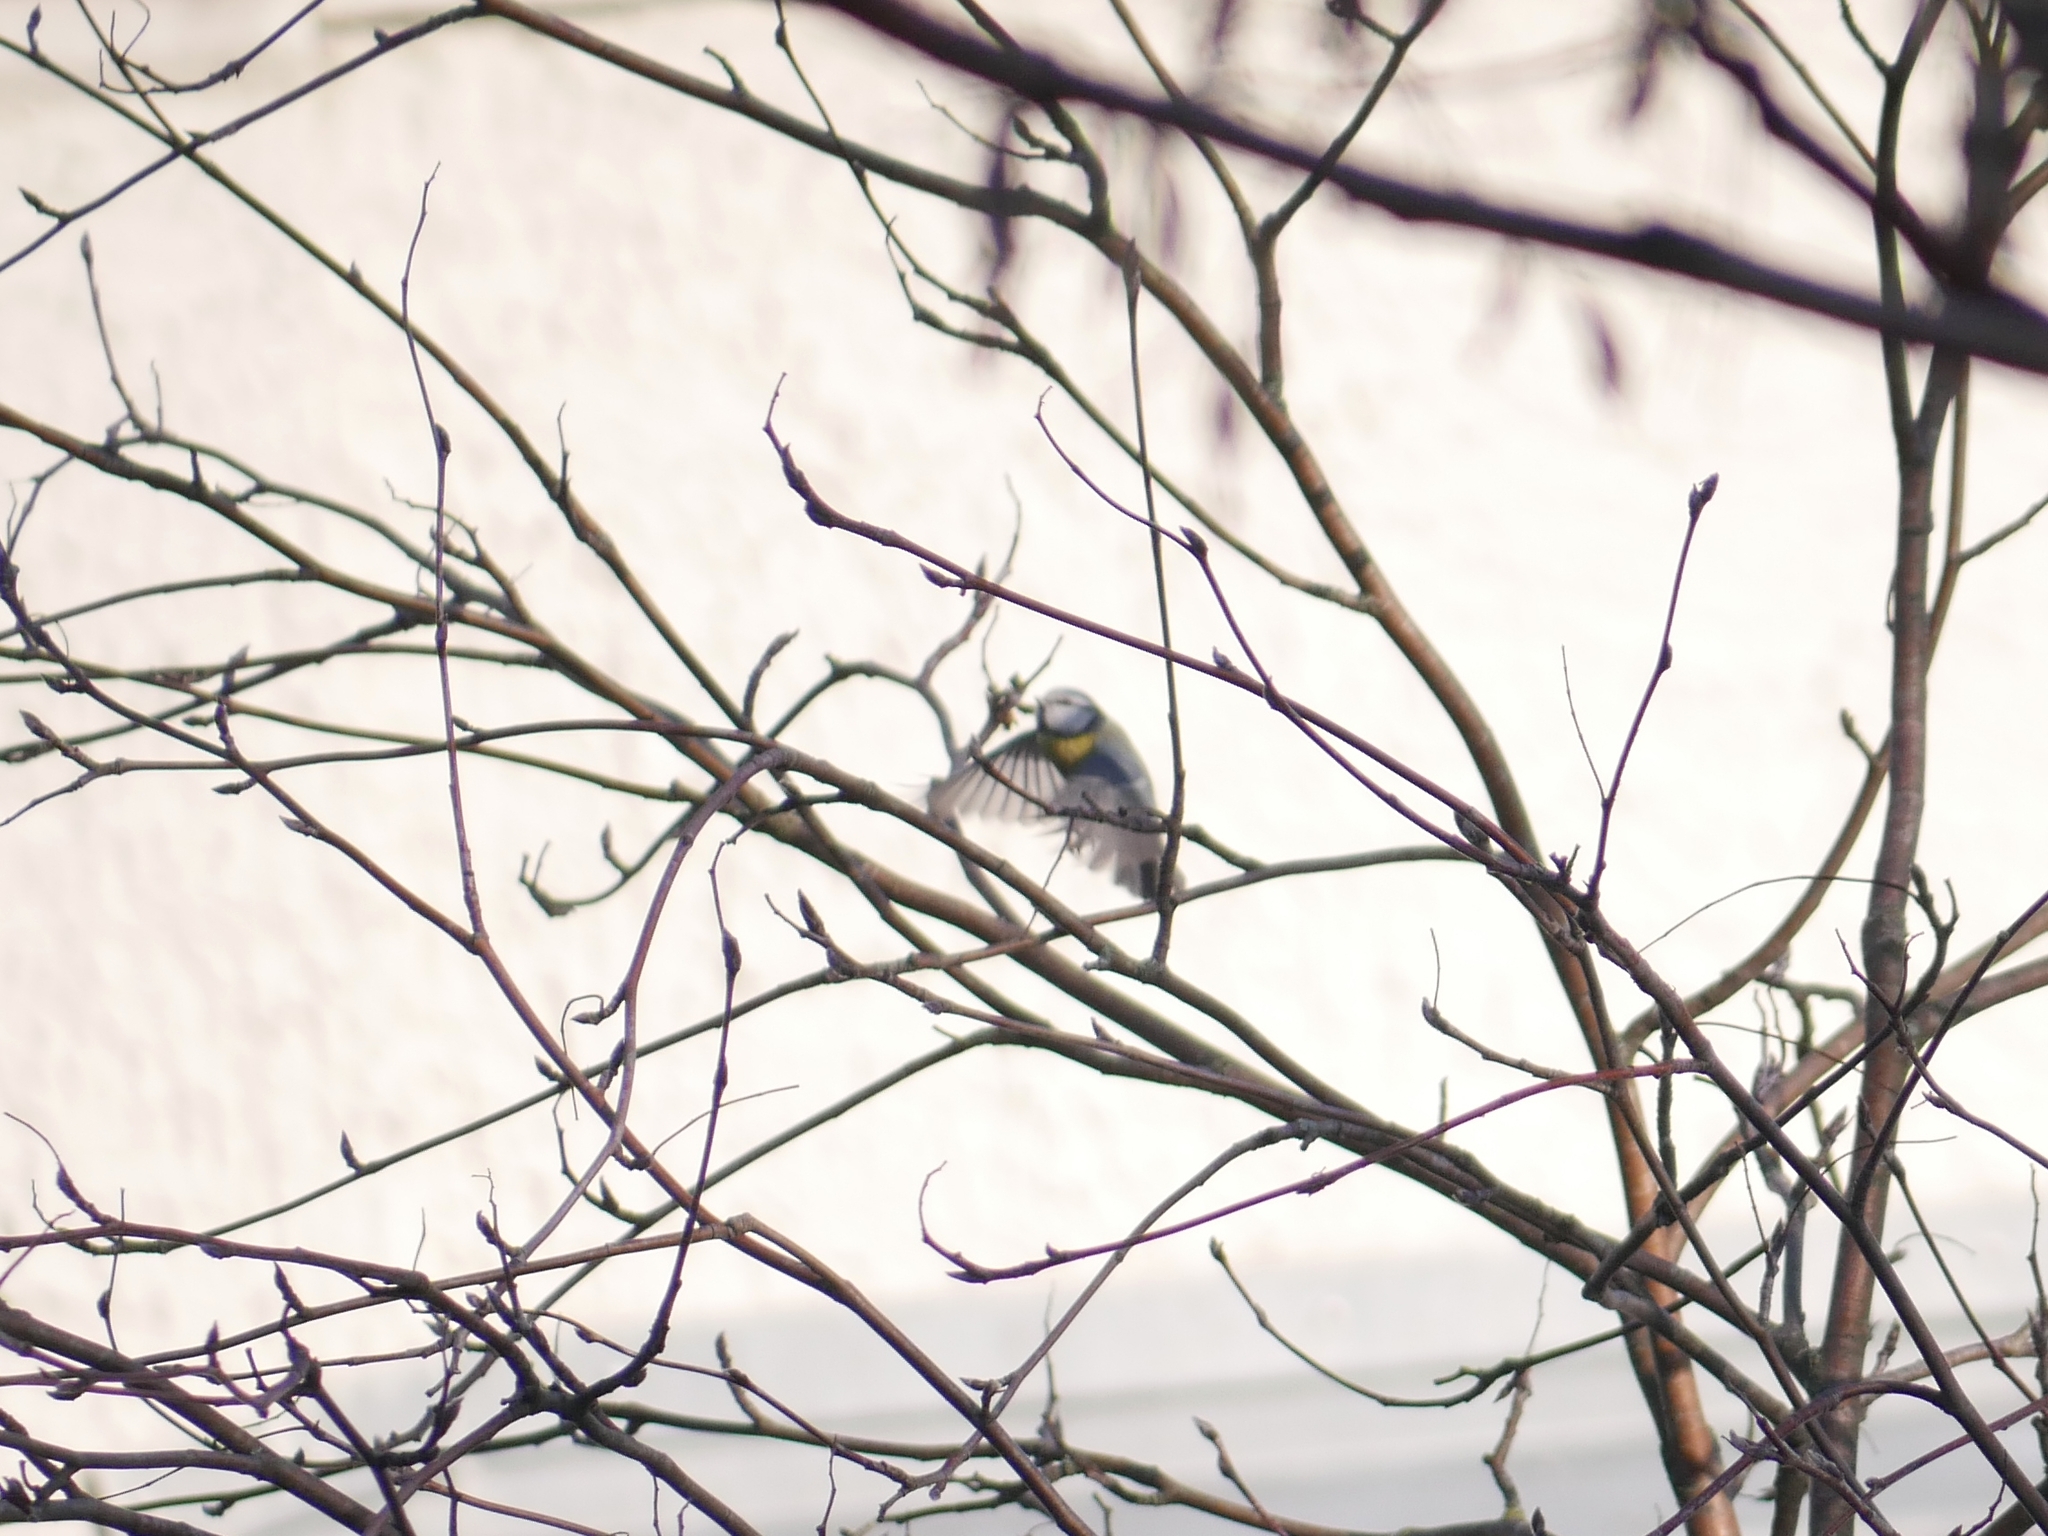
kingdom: Animalia
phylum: Chordata
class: Aves
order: Passeriformes
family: Paridae
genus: Cyanistes
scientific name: Cyanistes caeruleus
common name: Eurasian blue tit
